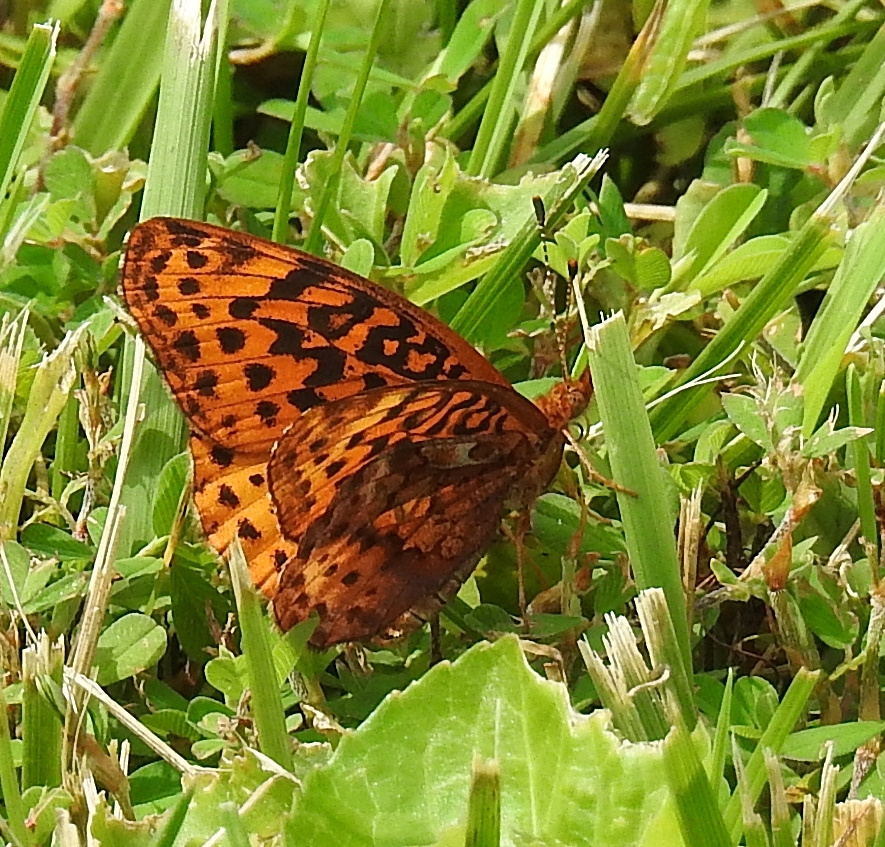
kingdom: Animalia
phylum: Arthropoda
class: Insecta
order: Lepidoptera
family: Nymphalidae
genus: Clossiana
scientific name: Clossiana toddi
